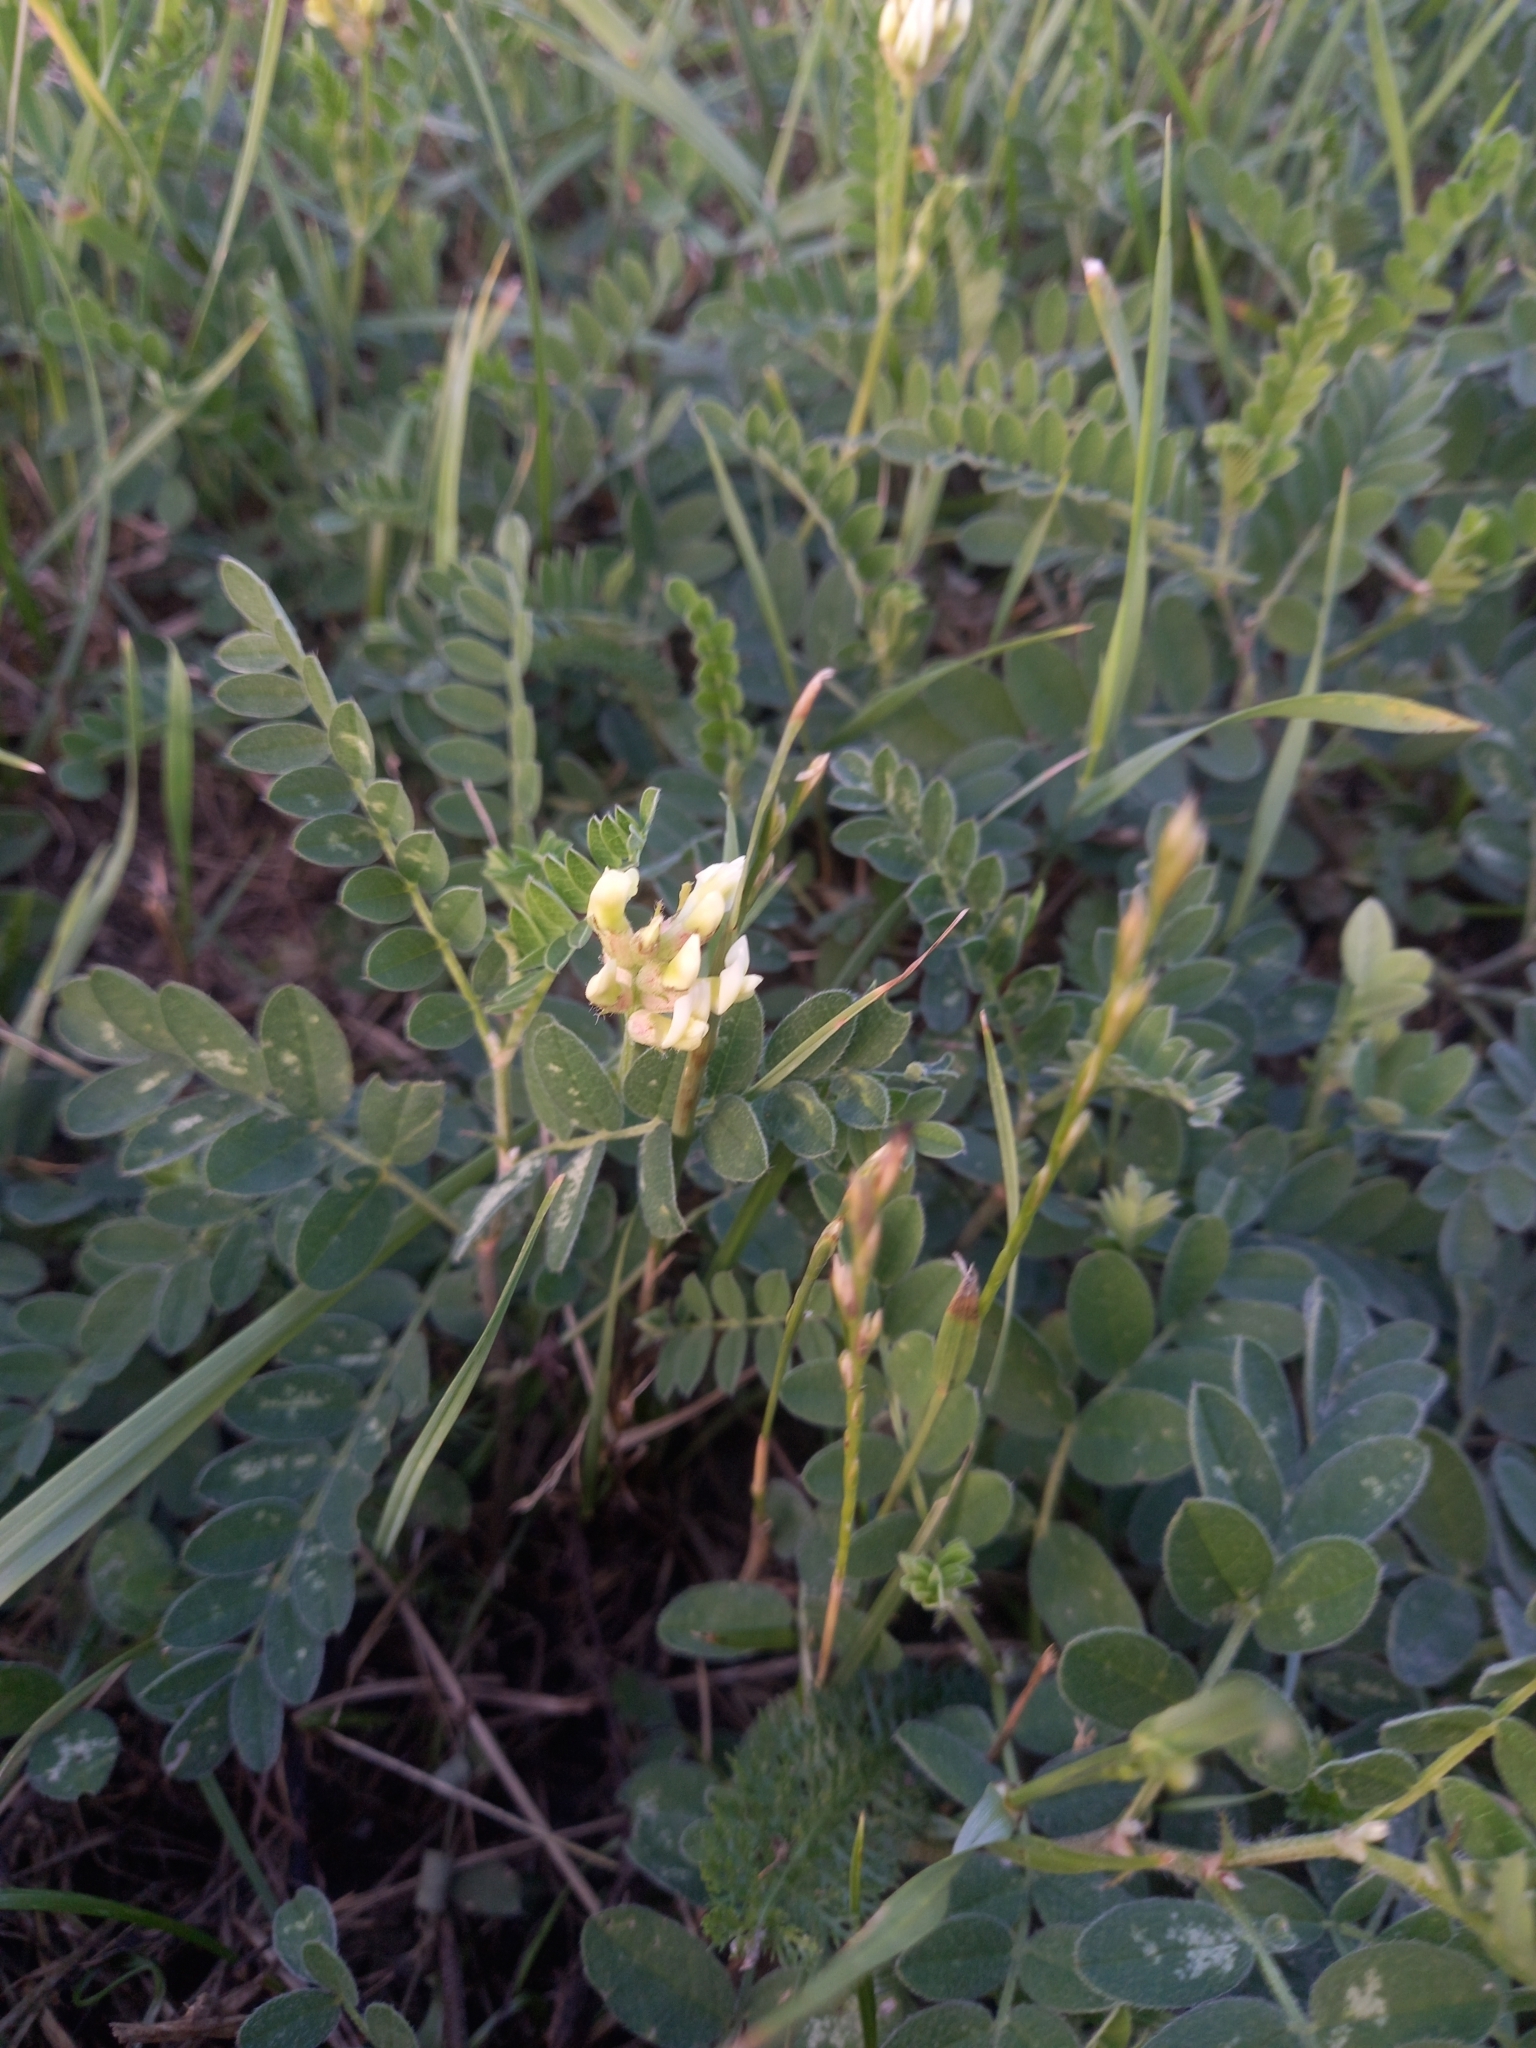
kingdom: Plantae
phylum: Tracheophyta
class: Magnoliopsida
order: Fabales
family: Fabaceae
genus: Astragalus
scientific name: Astragalus cicer
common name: Chick-pea milk-vetch
